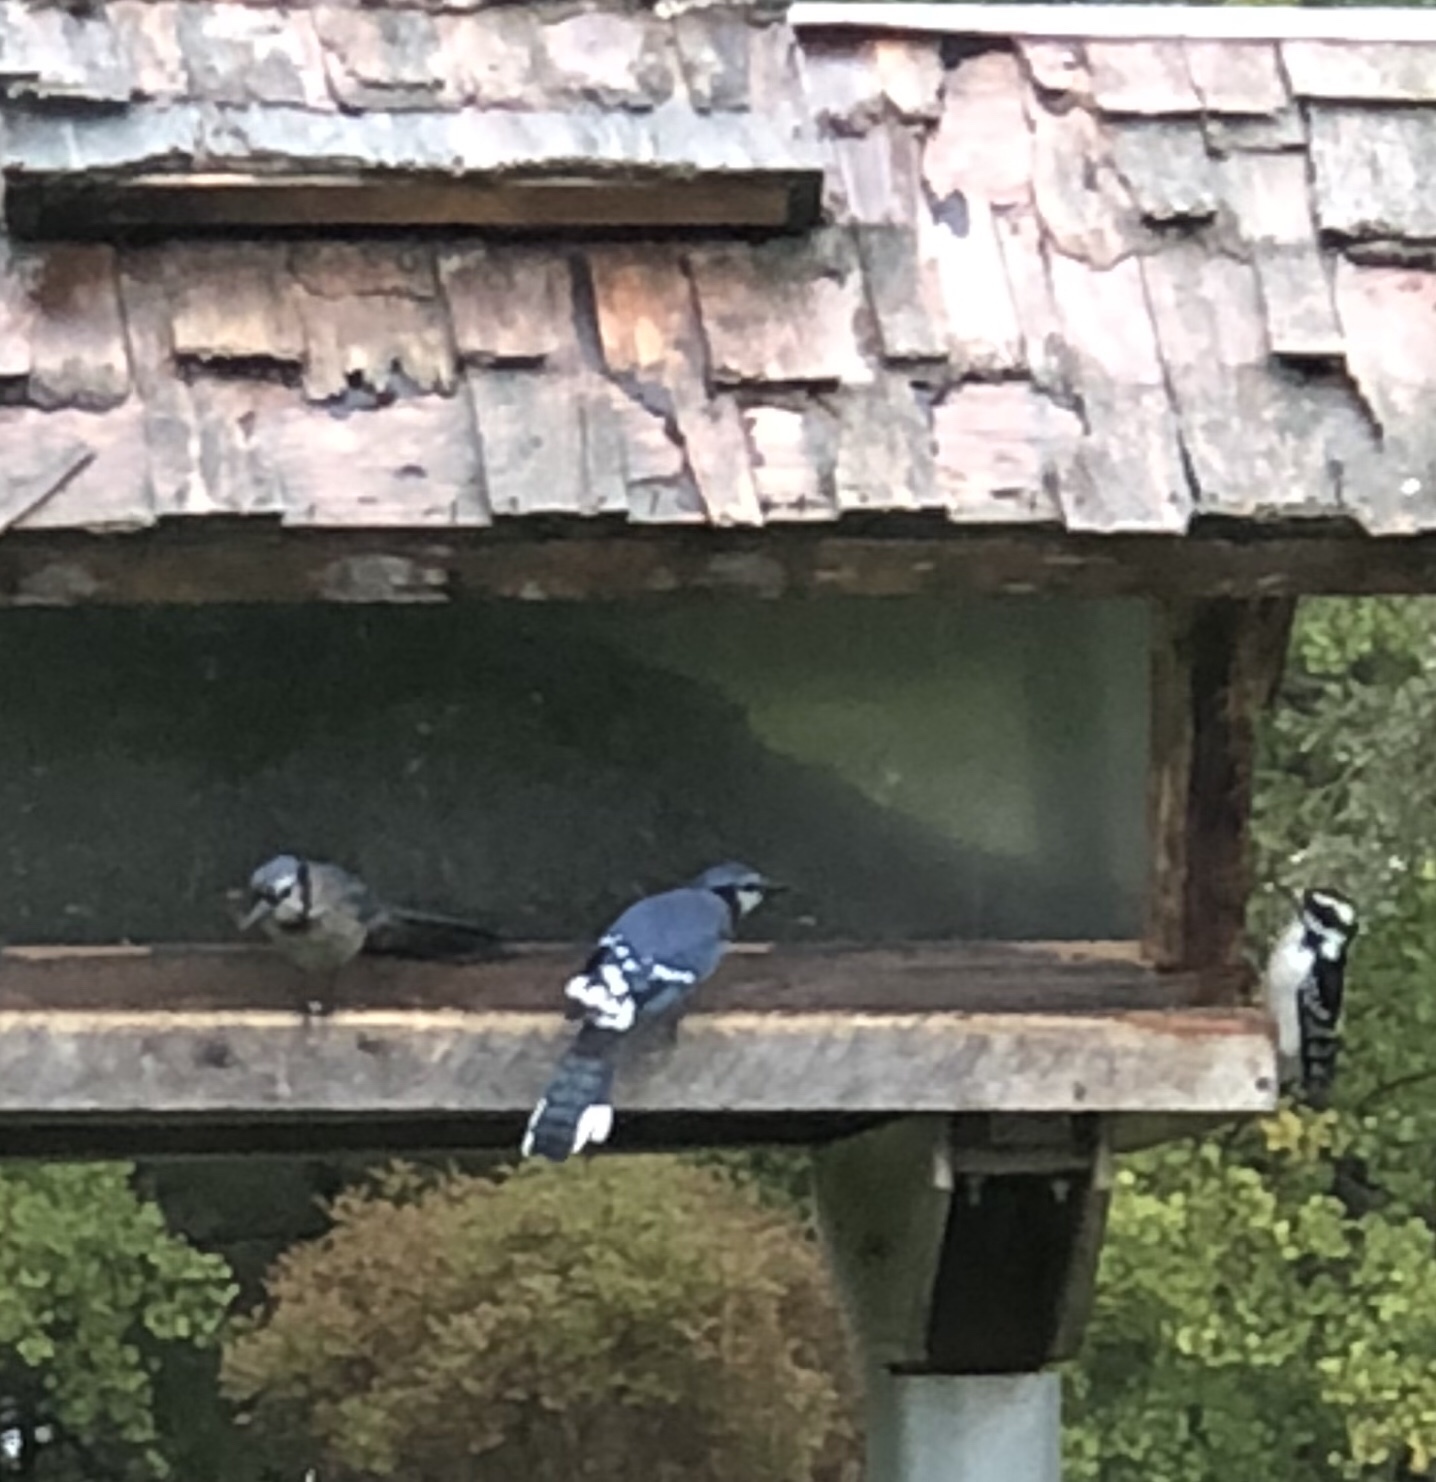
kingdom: Animalia
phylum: Chordata
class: Aves
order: Passeriformes
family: Corvidae
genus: Cyanocitta
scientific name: Cyanocitta cristata
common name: Blue jay
